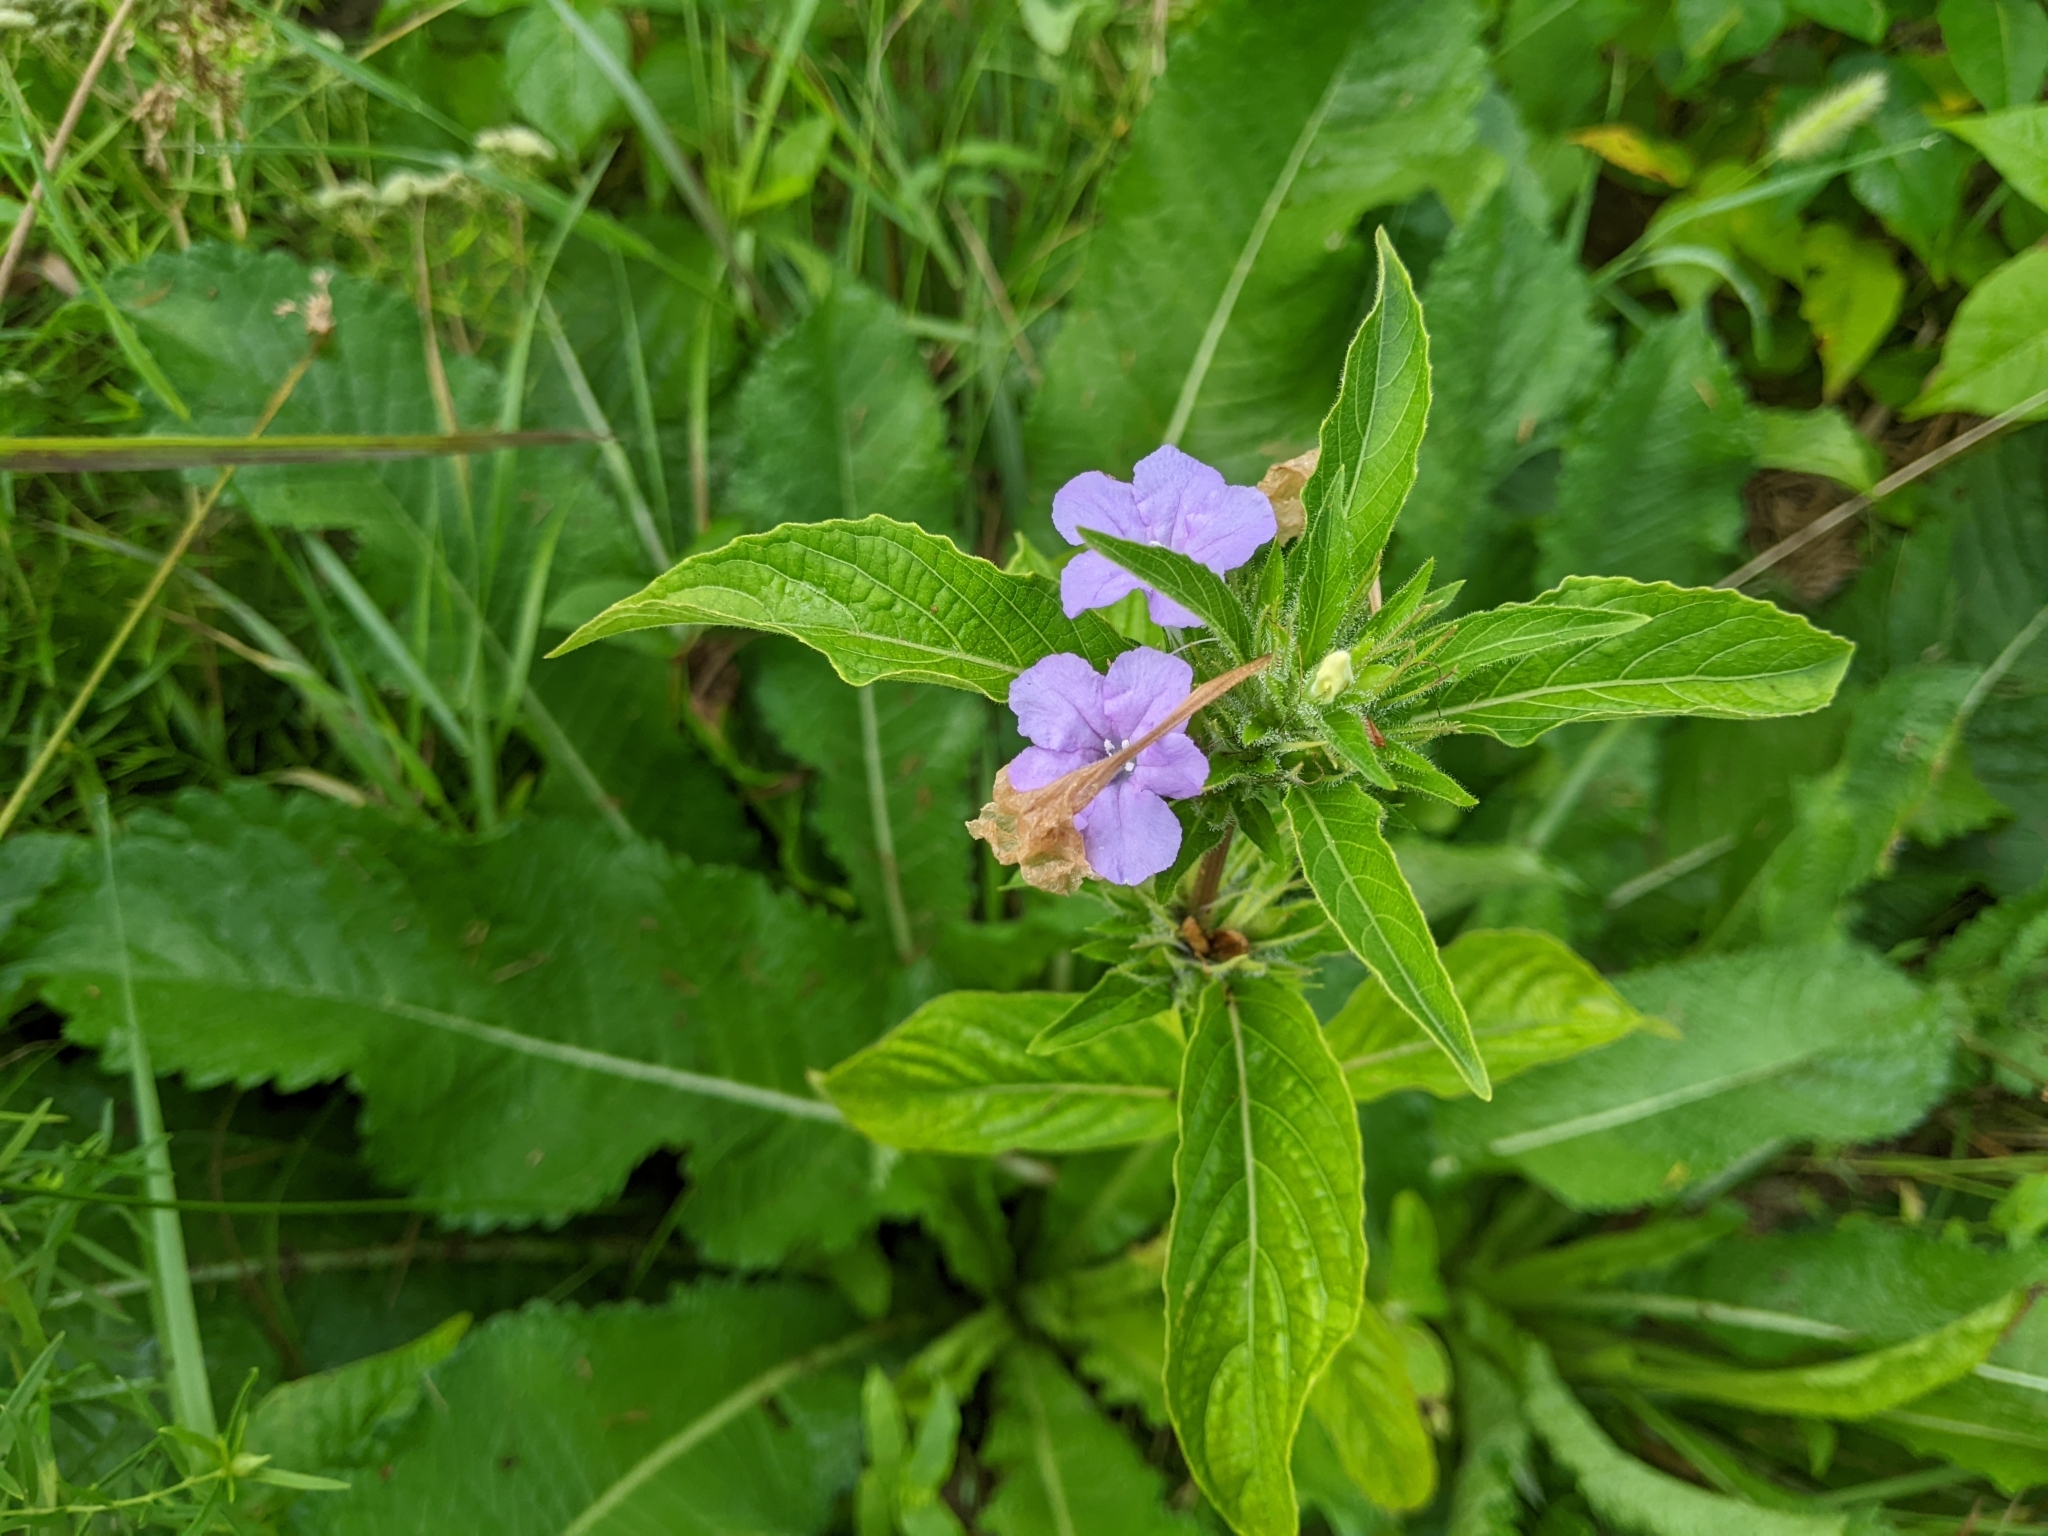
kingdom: Plantae
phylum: Tracheophyta
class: Magnoliopsida
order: Lamiales
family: Acanthaceae
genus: Ruellia
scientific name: Ruellia caroliniensis
